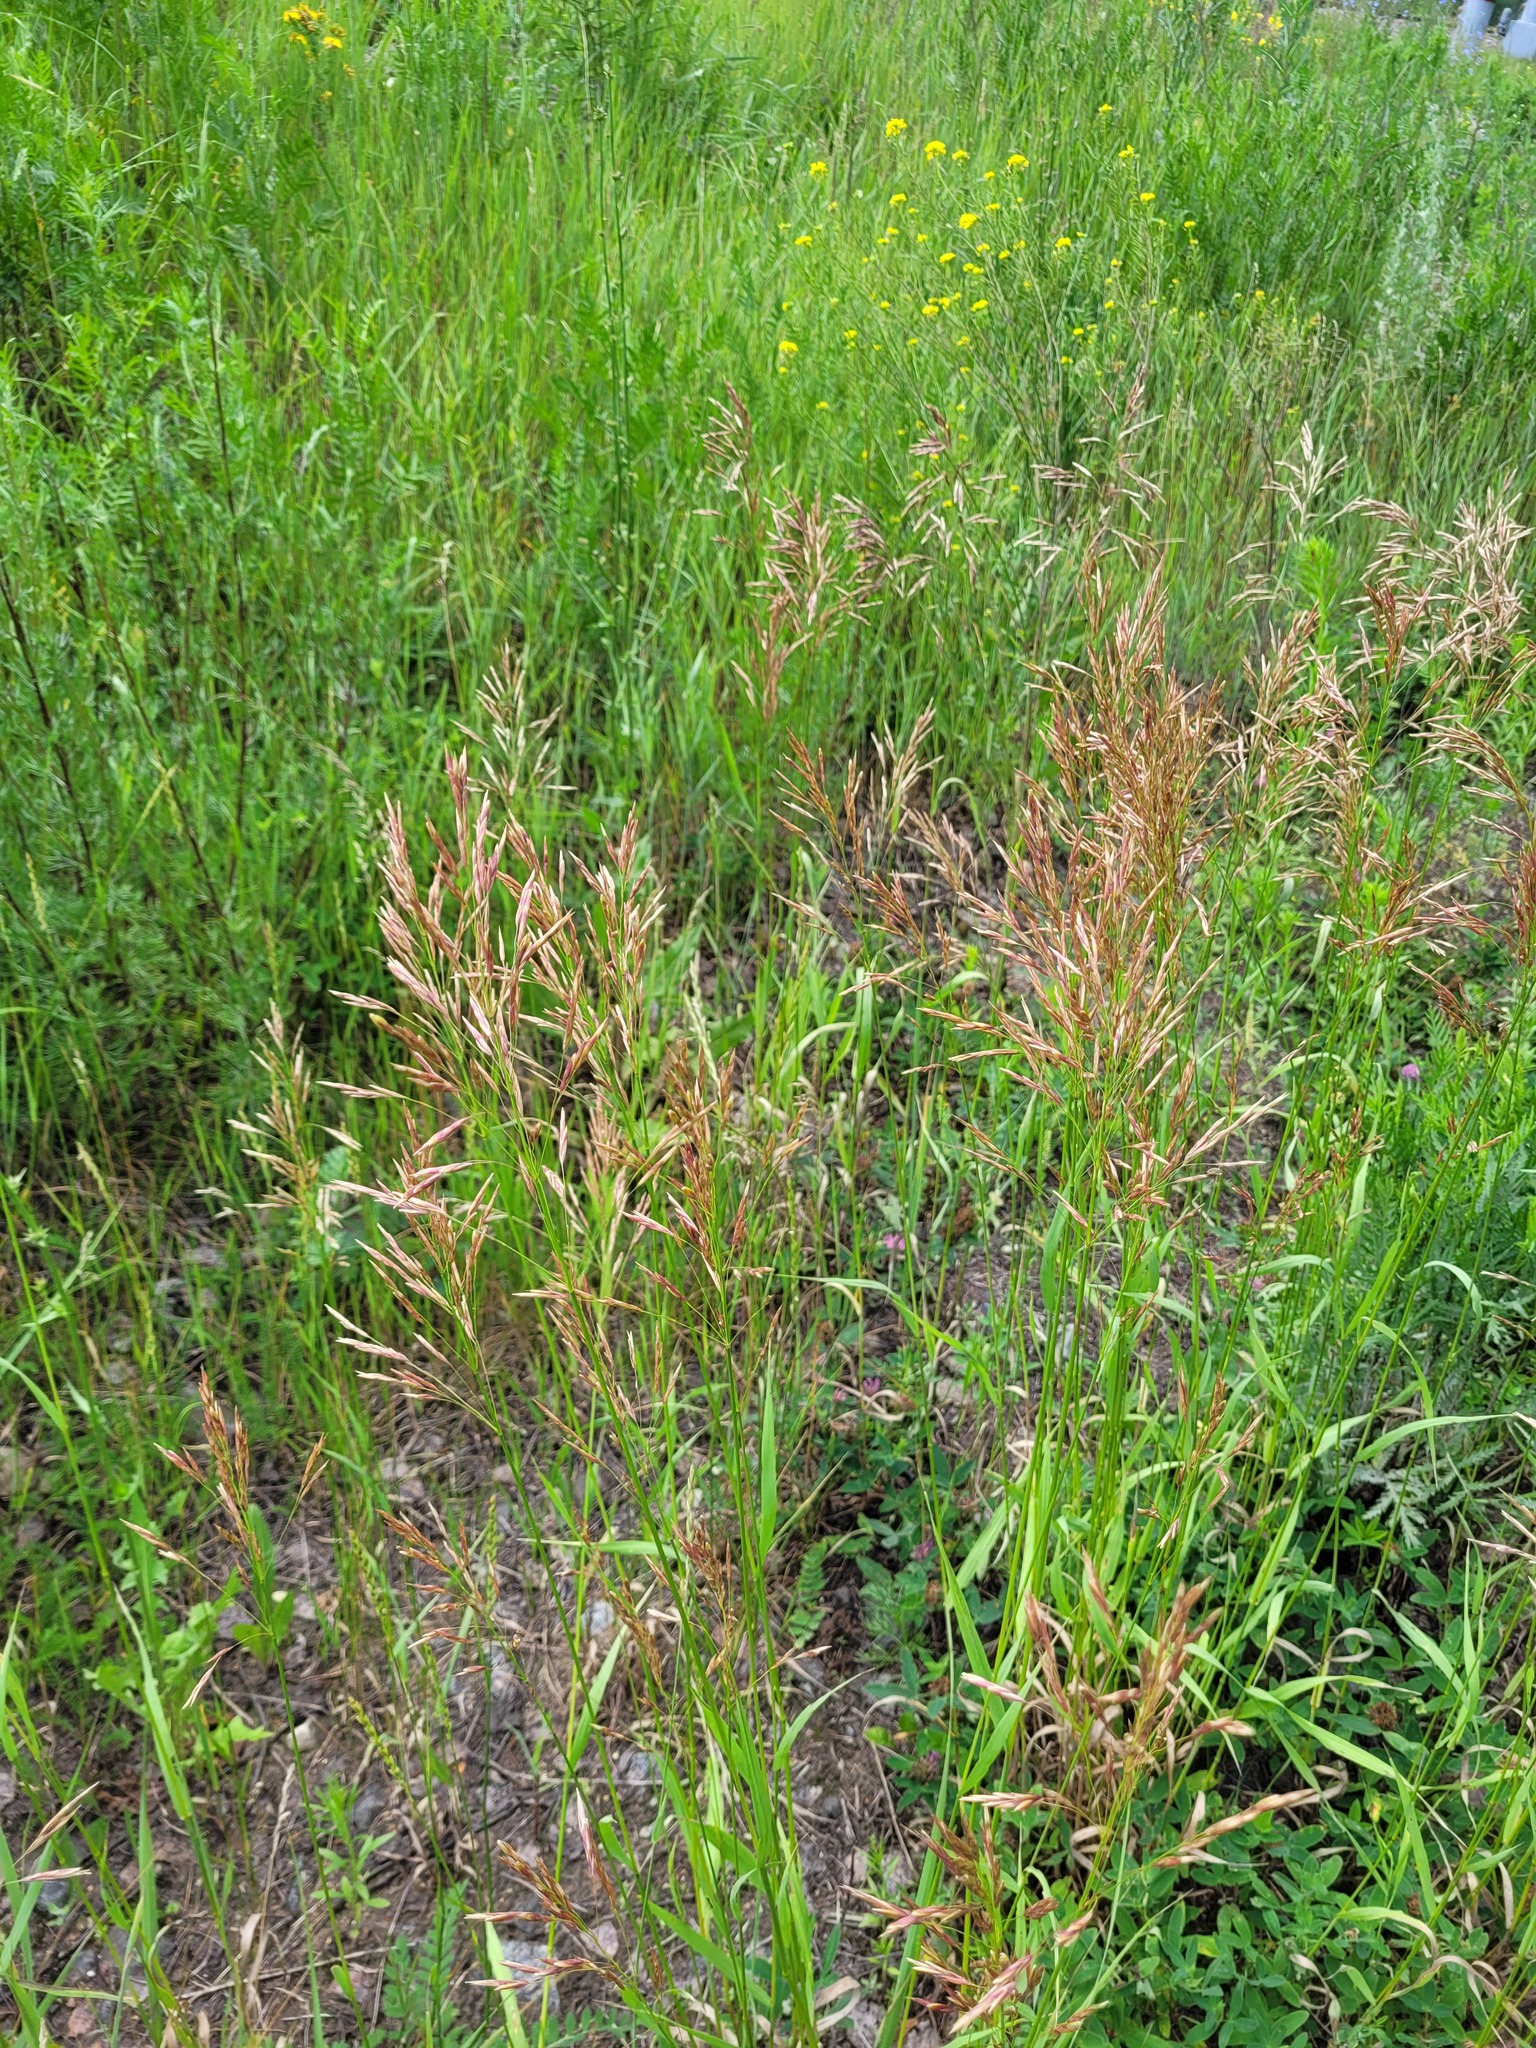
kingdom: Plantae
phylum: Tracheophyta
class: Liliopsida
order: Poales
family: Poaceae
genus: Bromus
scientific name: Bromus inermis
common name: Smooth brome
